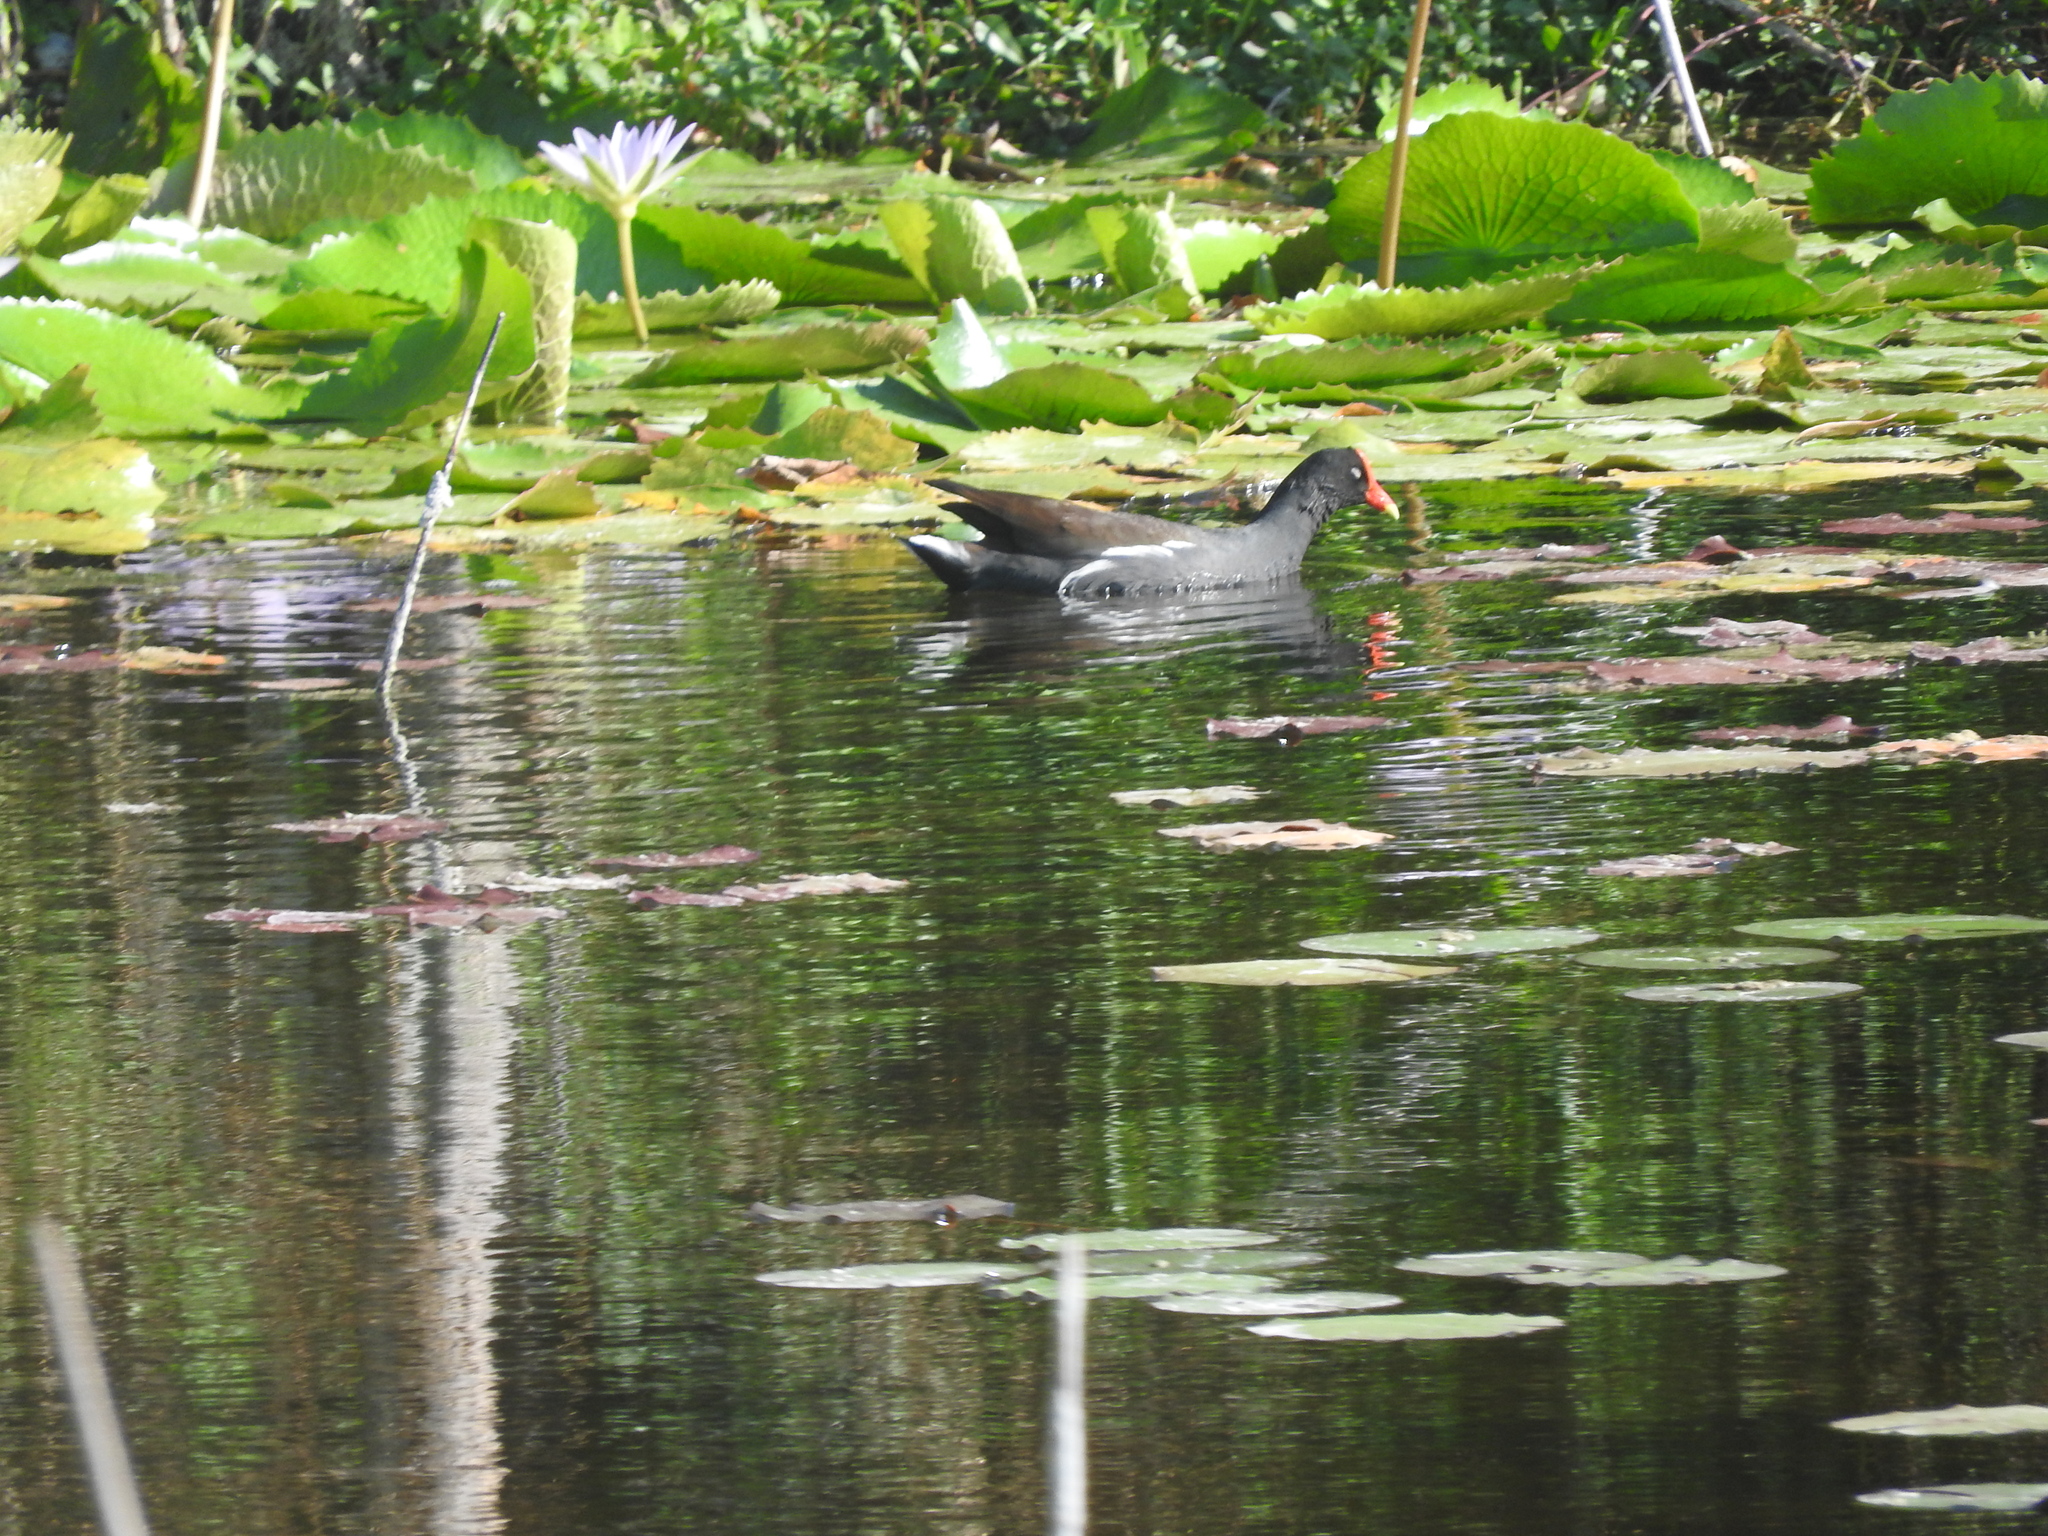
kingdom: Animalia
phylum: Chordata
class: Aves
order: Gruiformes
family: Rallidae
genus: Gallinula
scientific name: Gallinula chloropus
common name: Common moorhen
